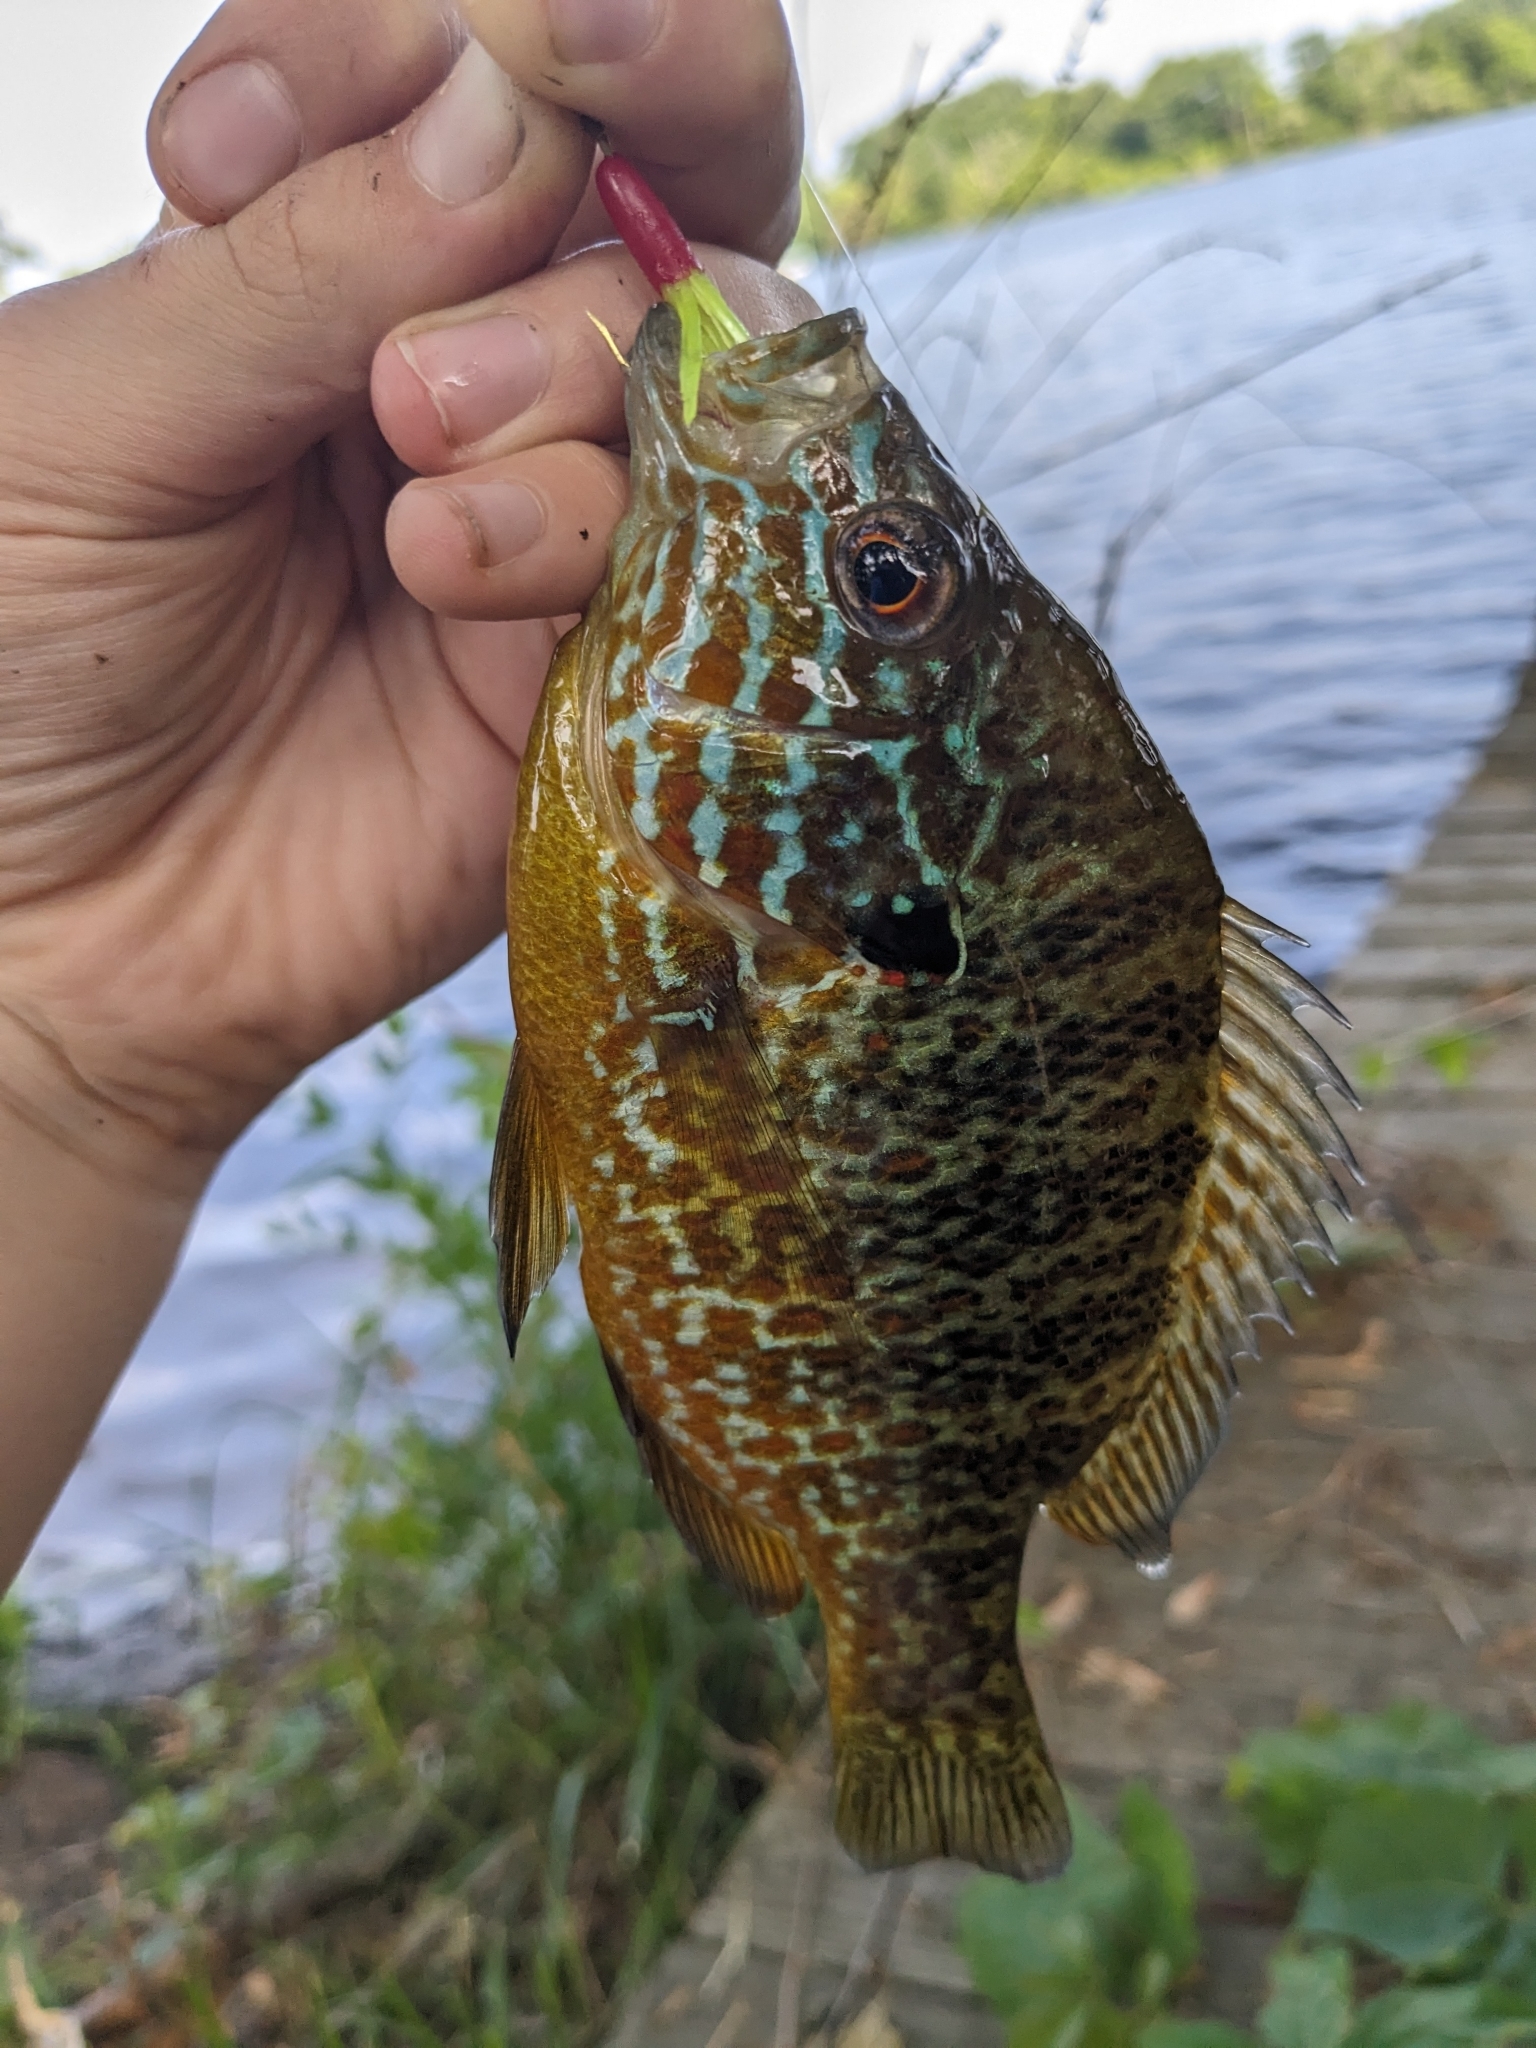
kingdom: Animalia
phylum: Chordata
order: Perciformes
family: Centrarchidae
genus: Lepomis
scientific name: Lepomis gibbosus
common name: Pumpkinseed
